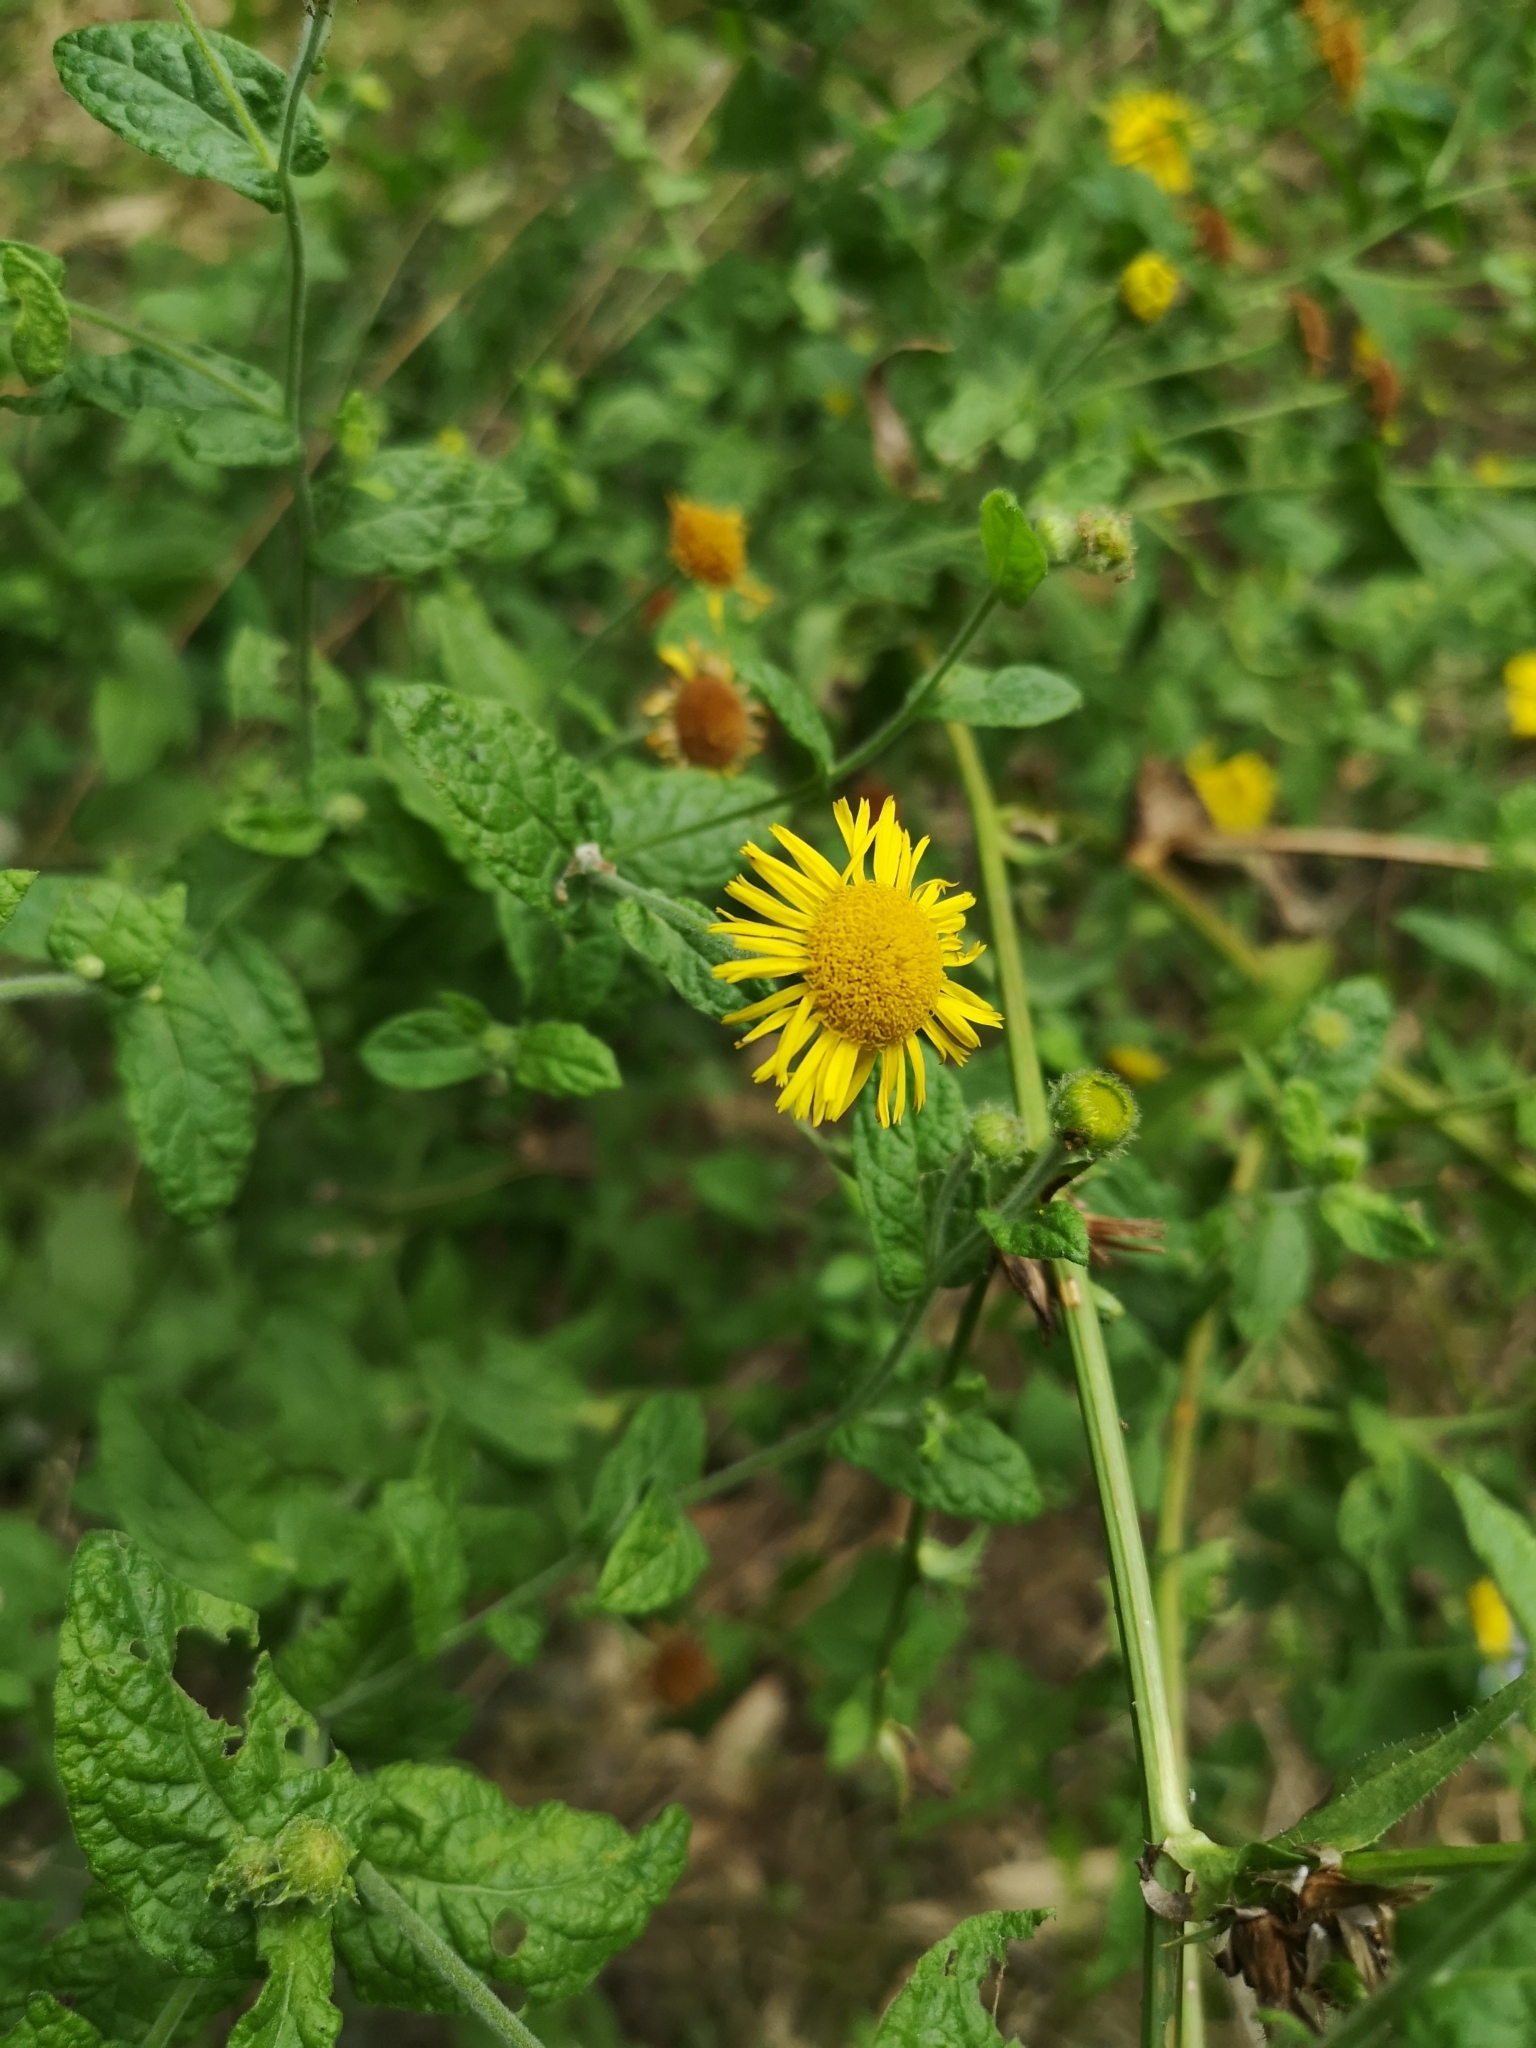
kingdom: Plantae
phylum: Tracheophyta
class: Magnoliopsida
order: Asterales
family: Asteraceae
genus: Pulicaria
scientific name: Pulicaria dysenterica
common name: Common fleabane
